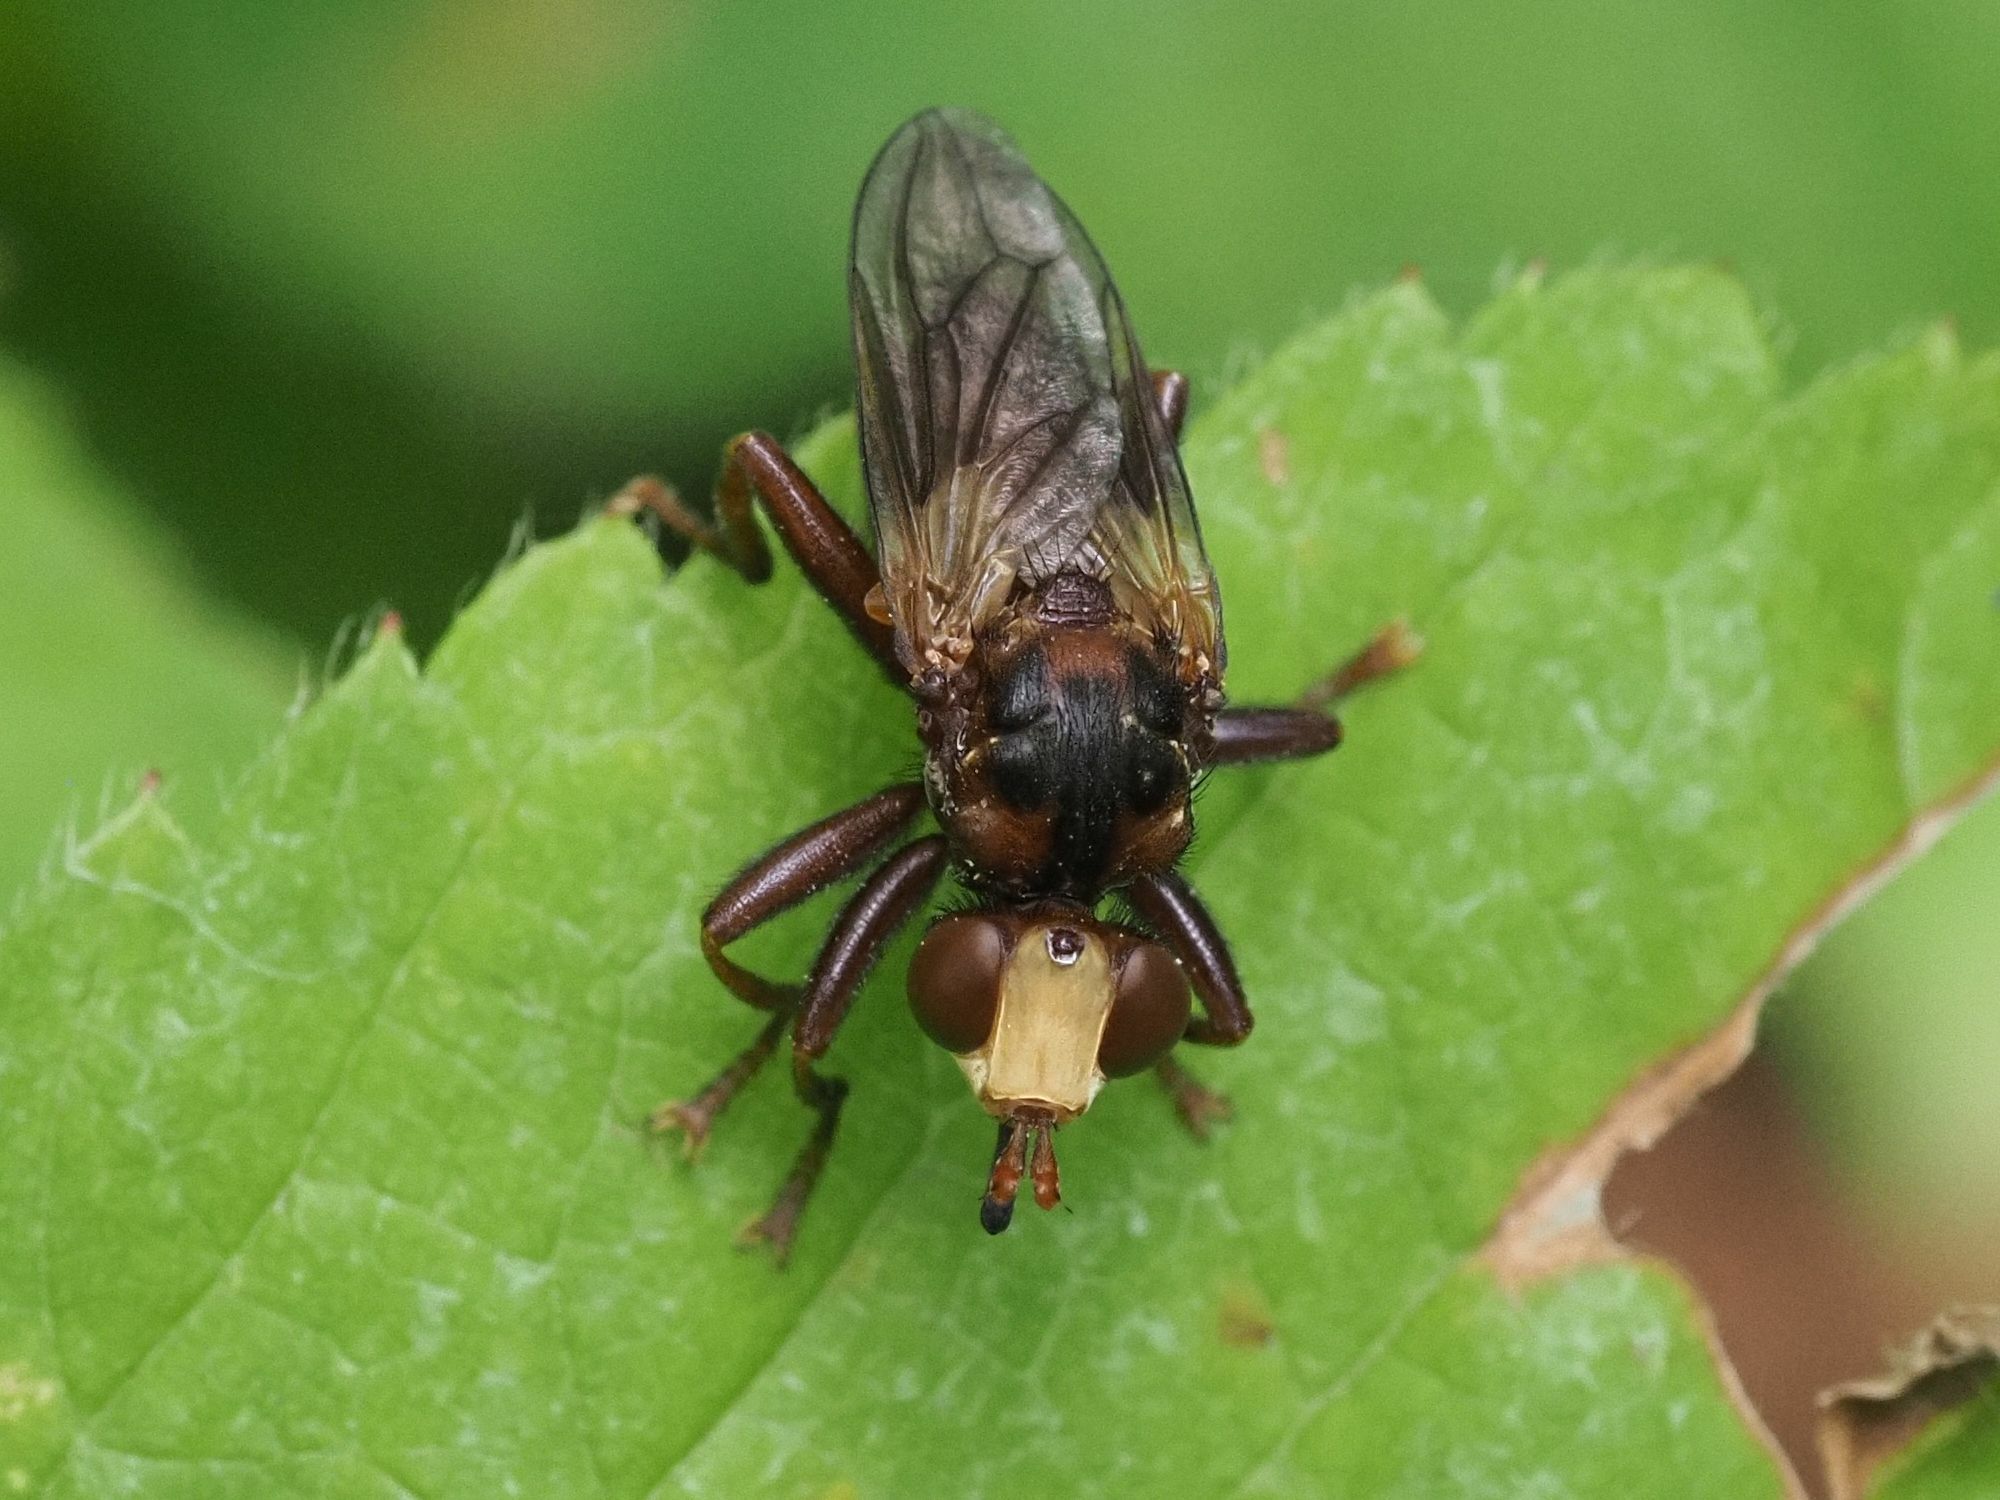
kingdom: Animalia
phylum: Arthropoda
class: Insecta
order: Diptera
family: Conopidae
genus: Sicus
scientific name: Sicus ferrugineus
